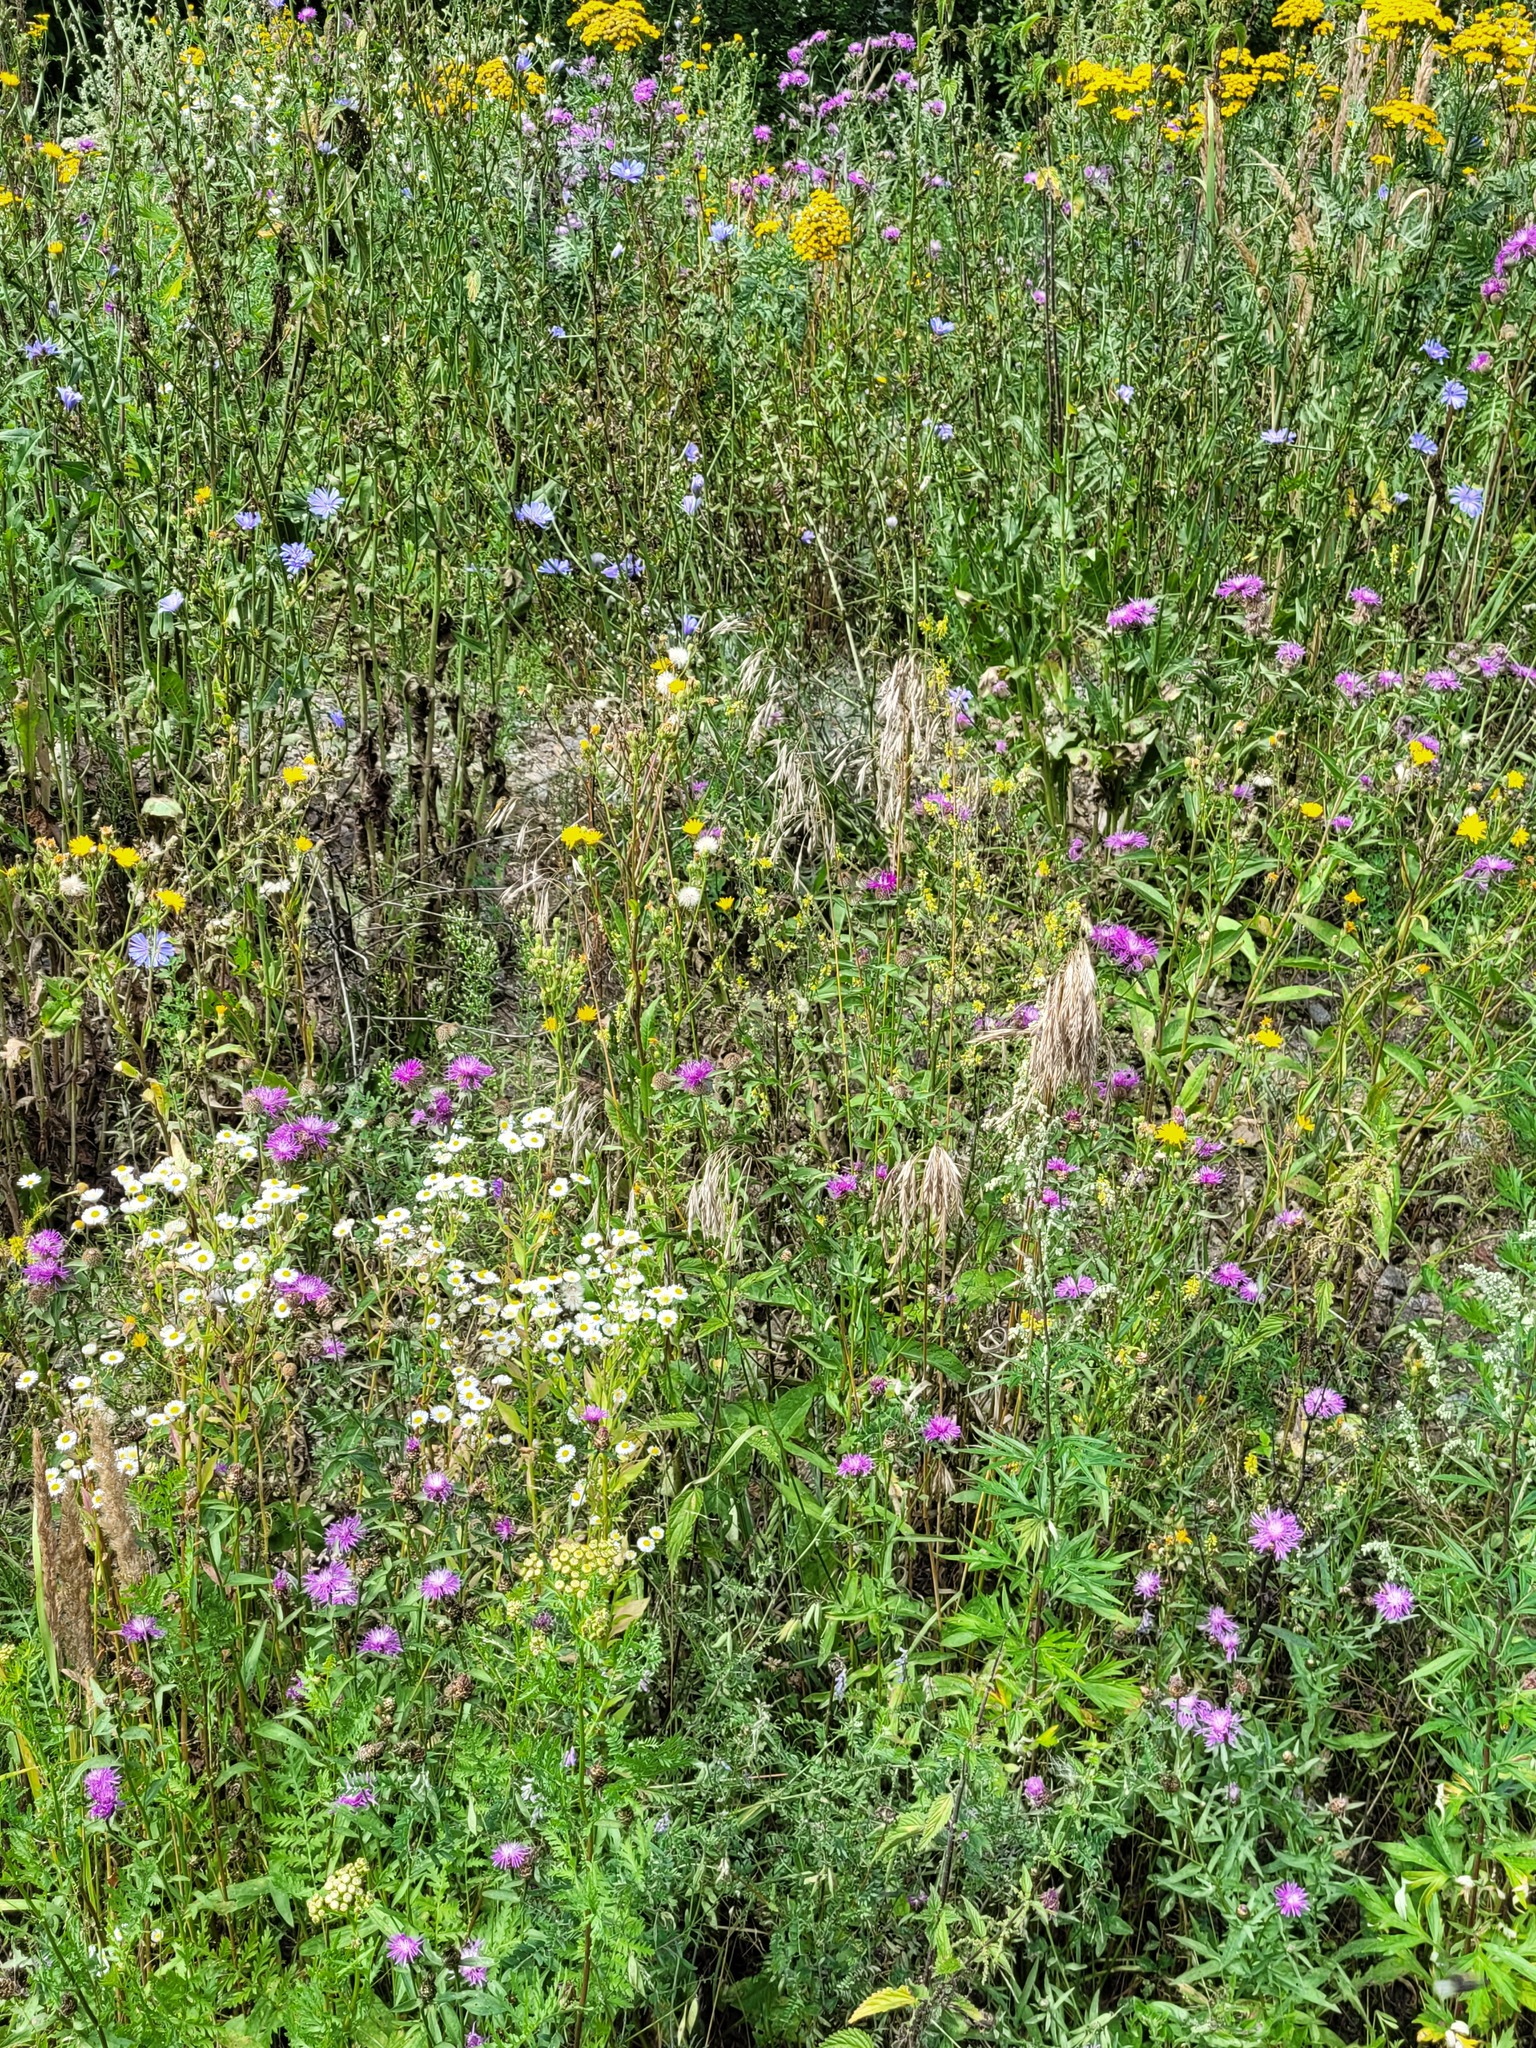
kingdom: Plantae
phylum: Tracheophyta
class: Liliopsida
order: Poales
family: Poaceae
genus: Bromus
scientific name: Bromus inermis
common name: Smooth brome
